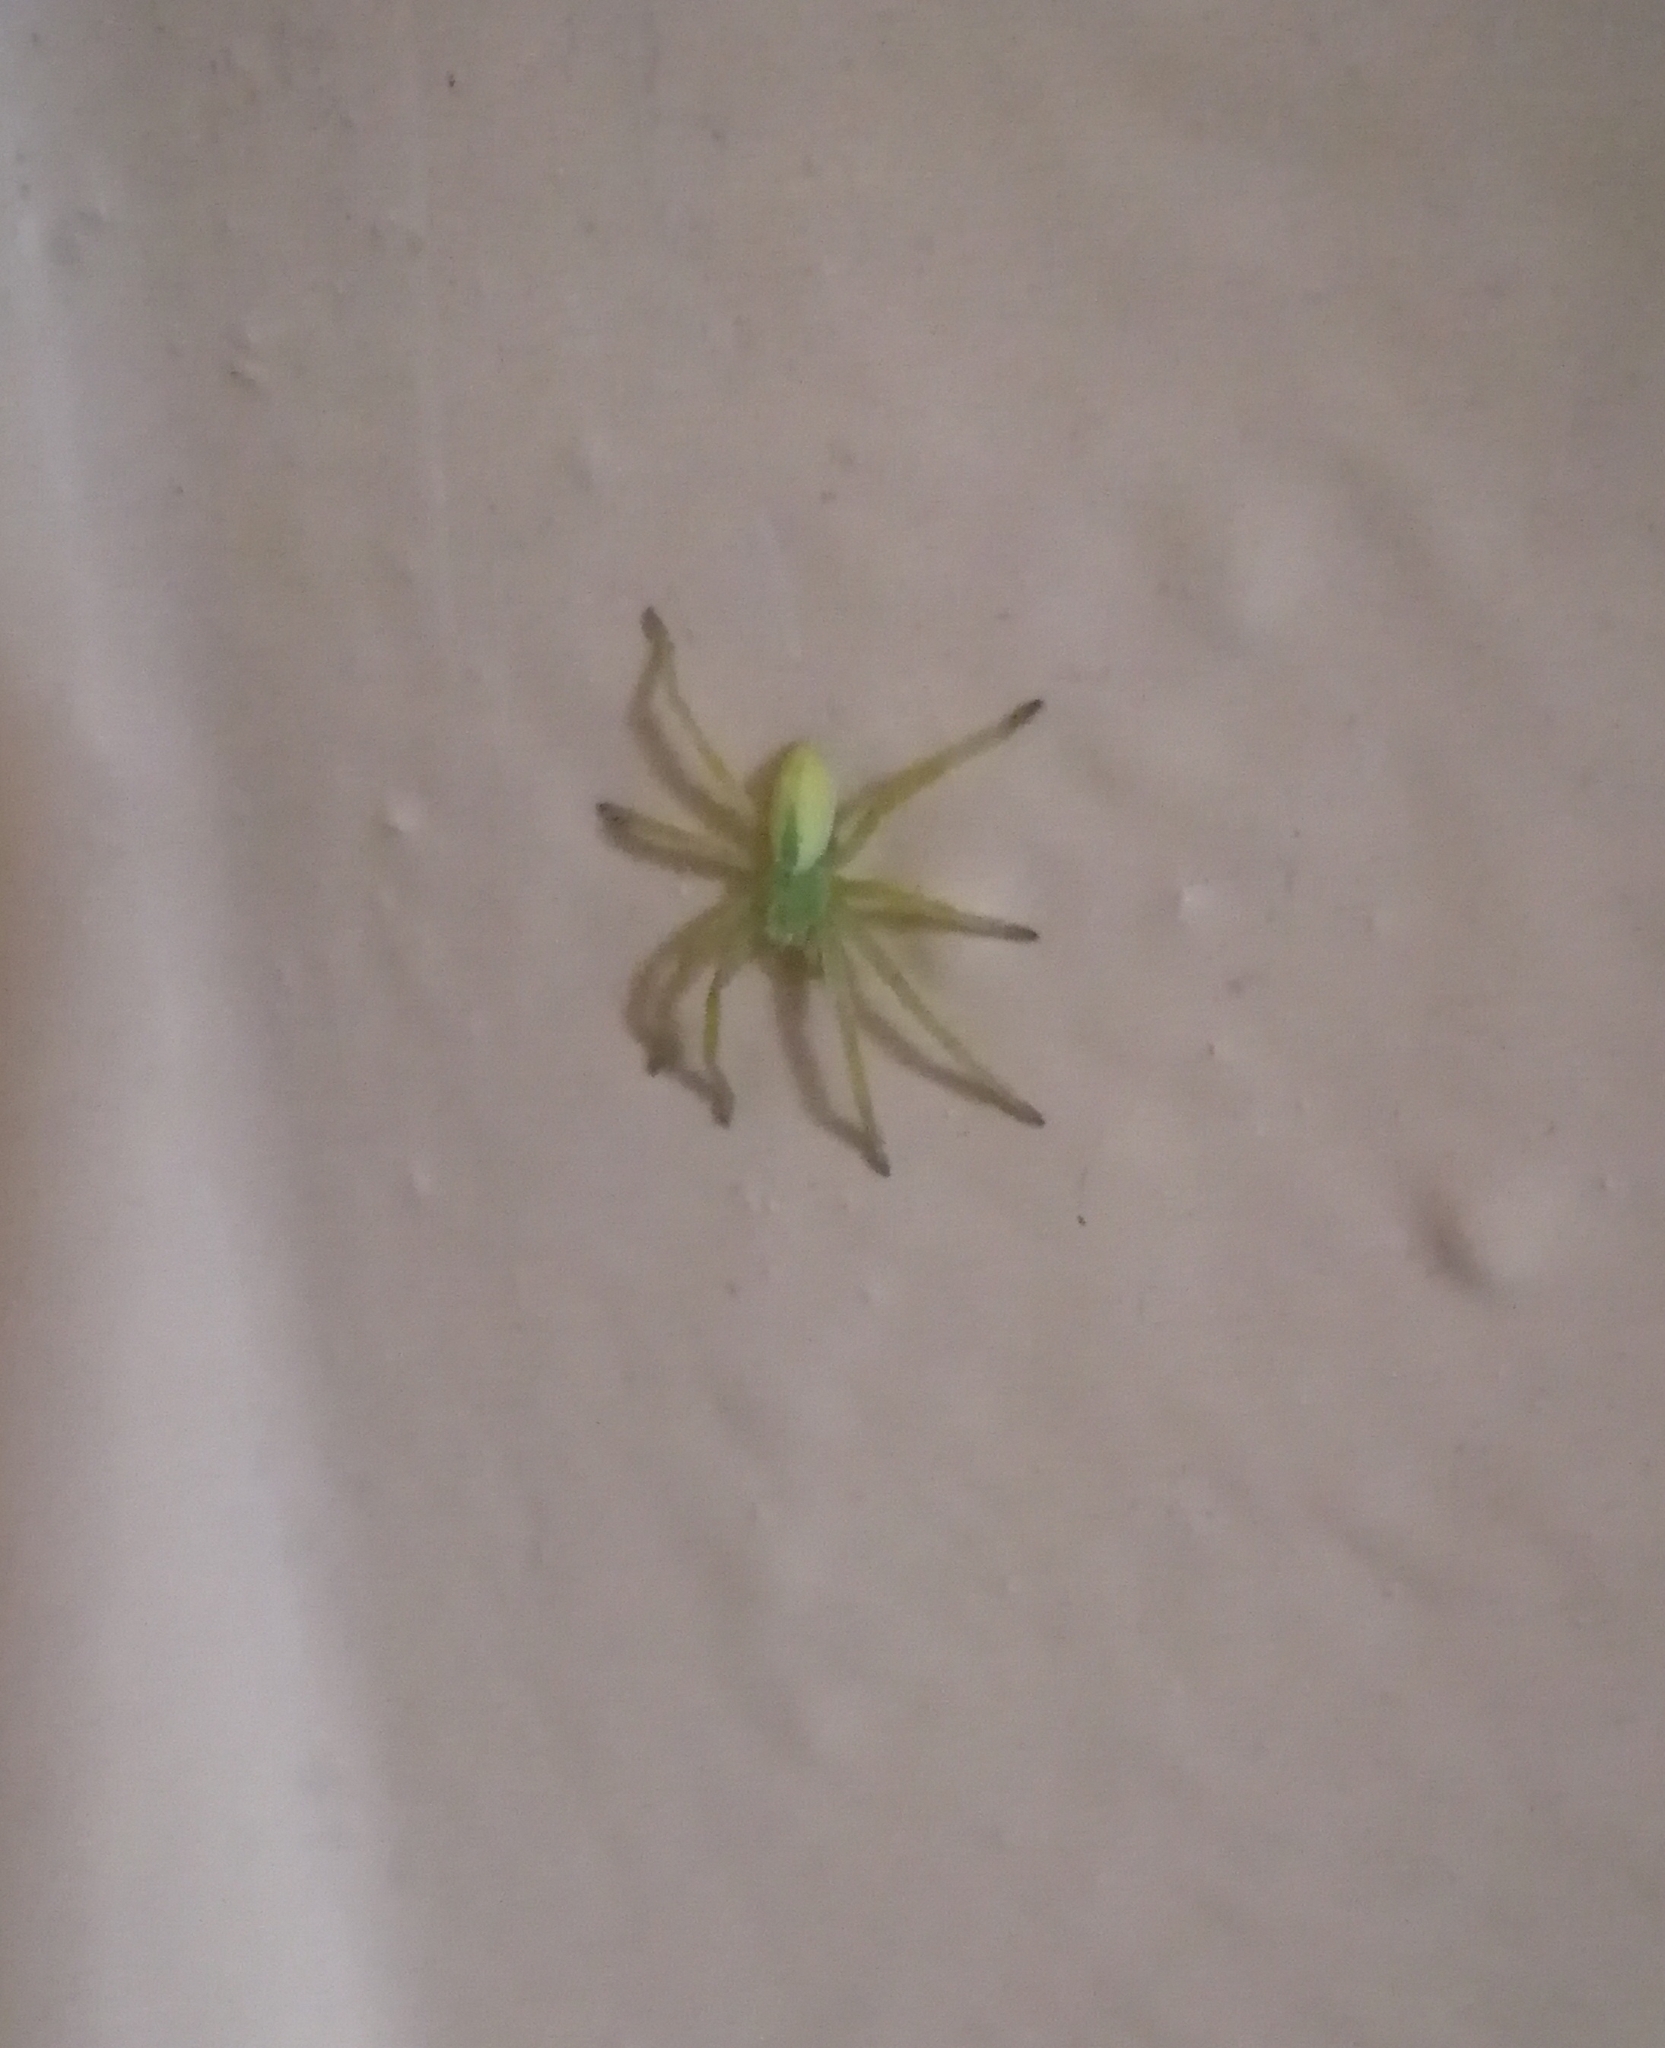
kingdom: Animalia
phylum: Arthropoda
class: Arachnida
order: Araneae
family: Sparassidae
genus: Micrommata
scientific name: Micrommata virescens
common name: Green spider
